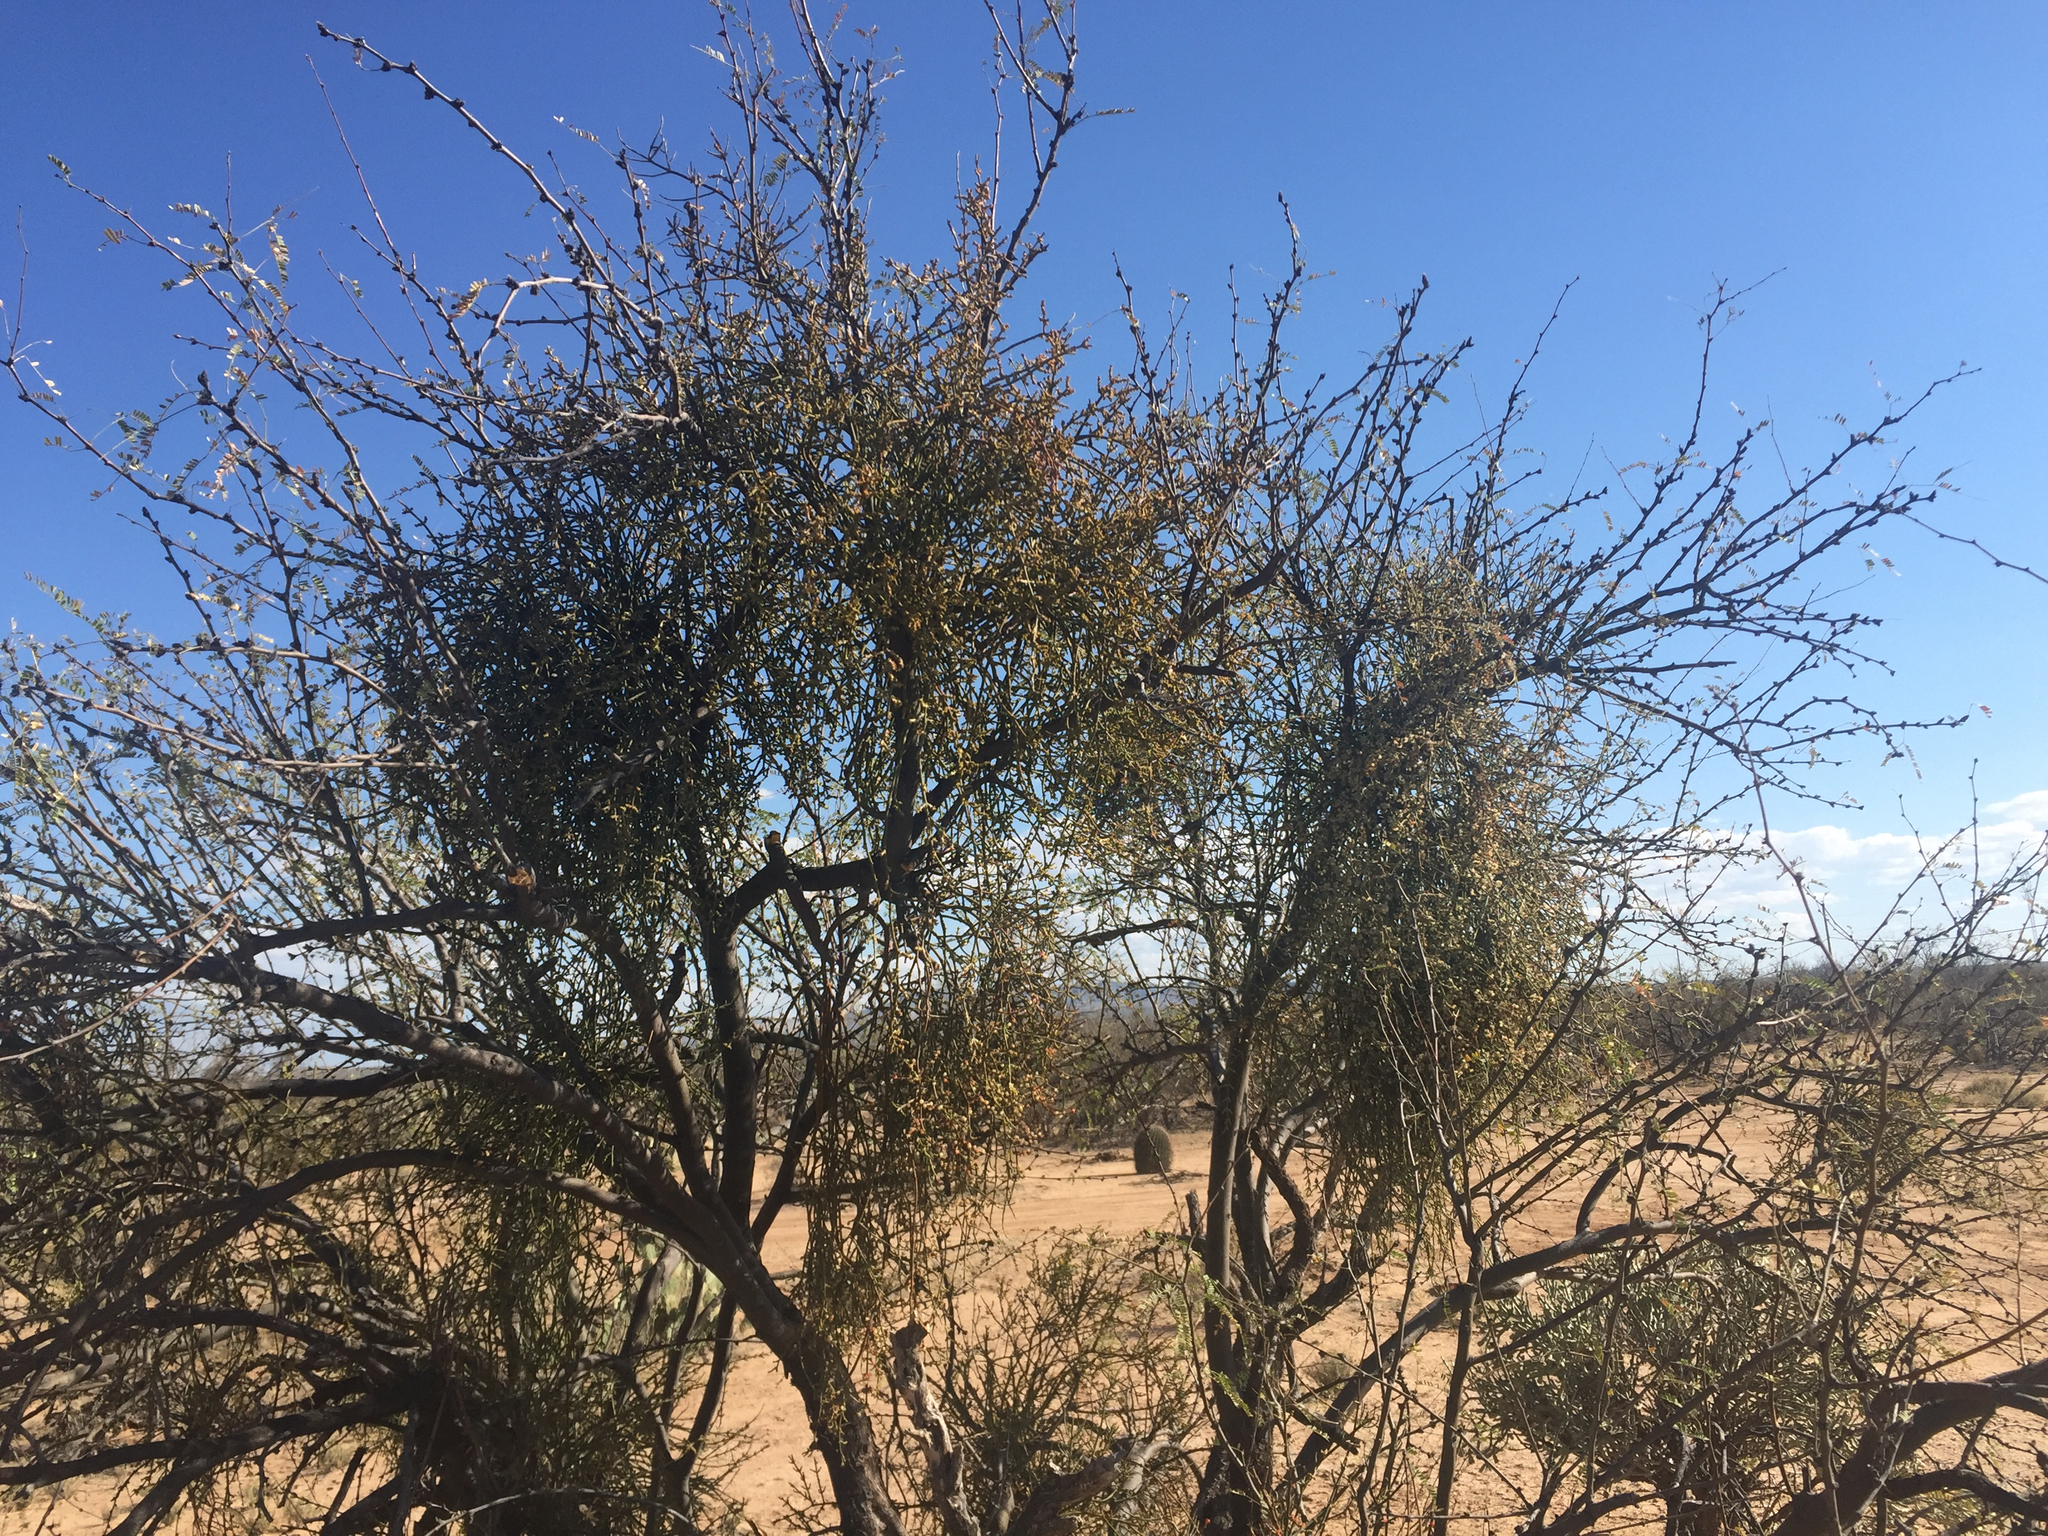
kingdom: Plantae
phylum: Tracheophyta
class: Magnoliopsida
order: Santalales
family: Viscaceae
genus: Phoradendron
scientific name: Phoradendron californicum
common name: Acacia mistletoe
